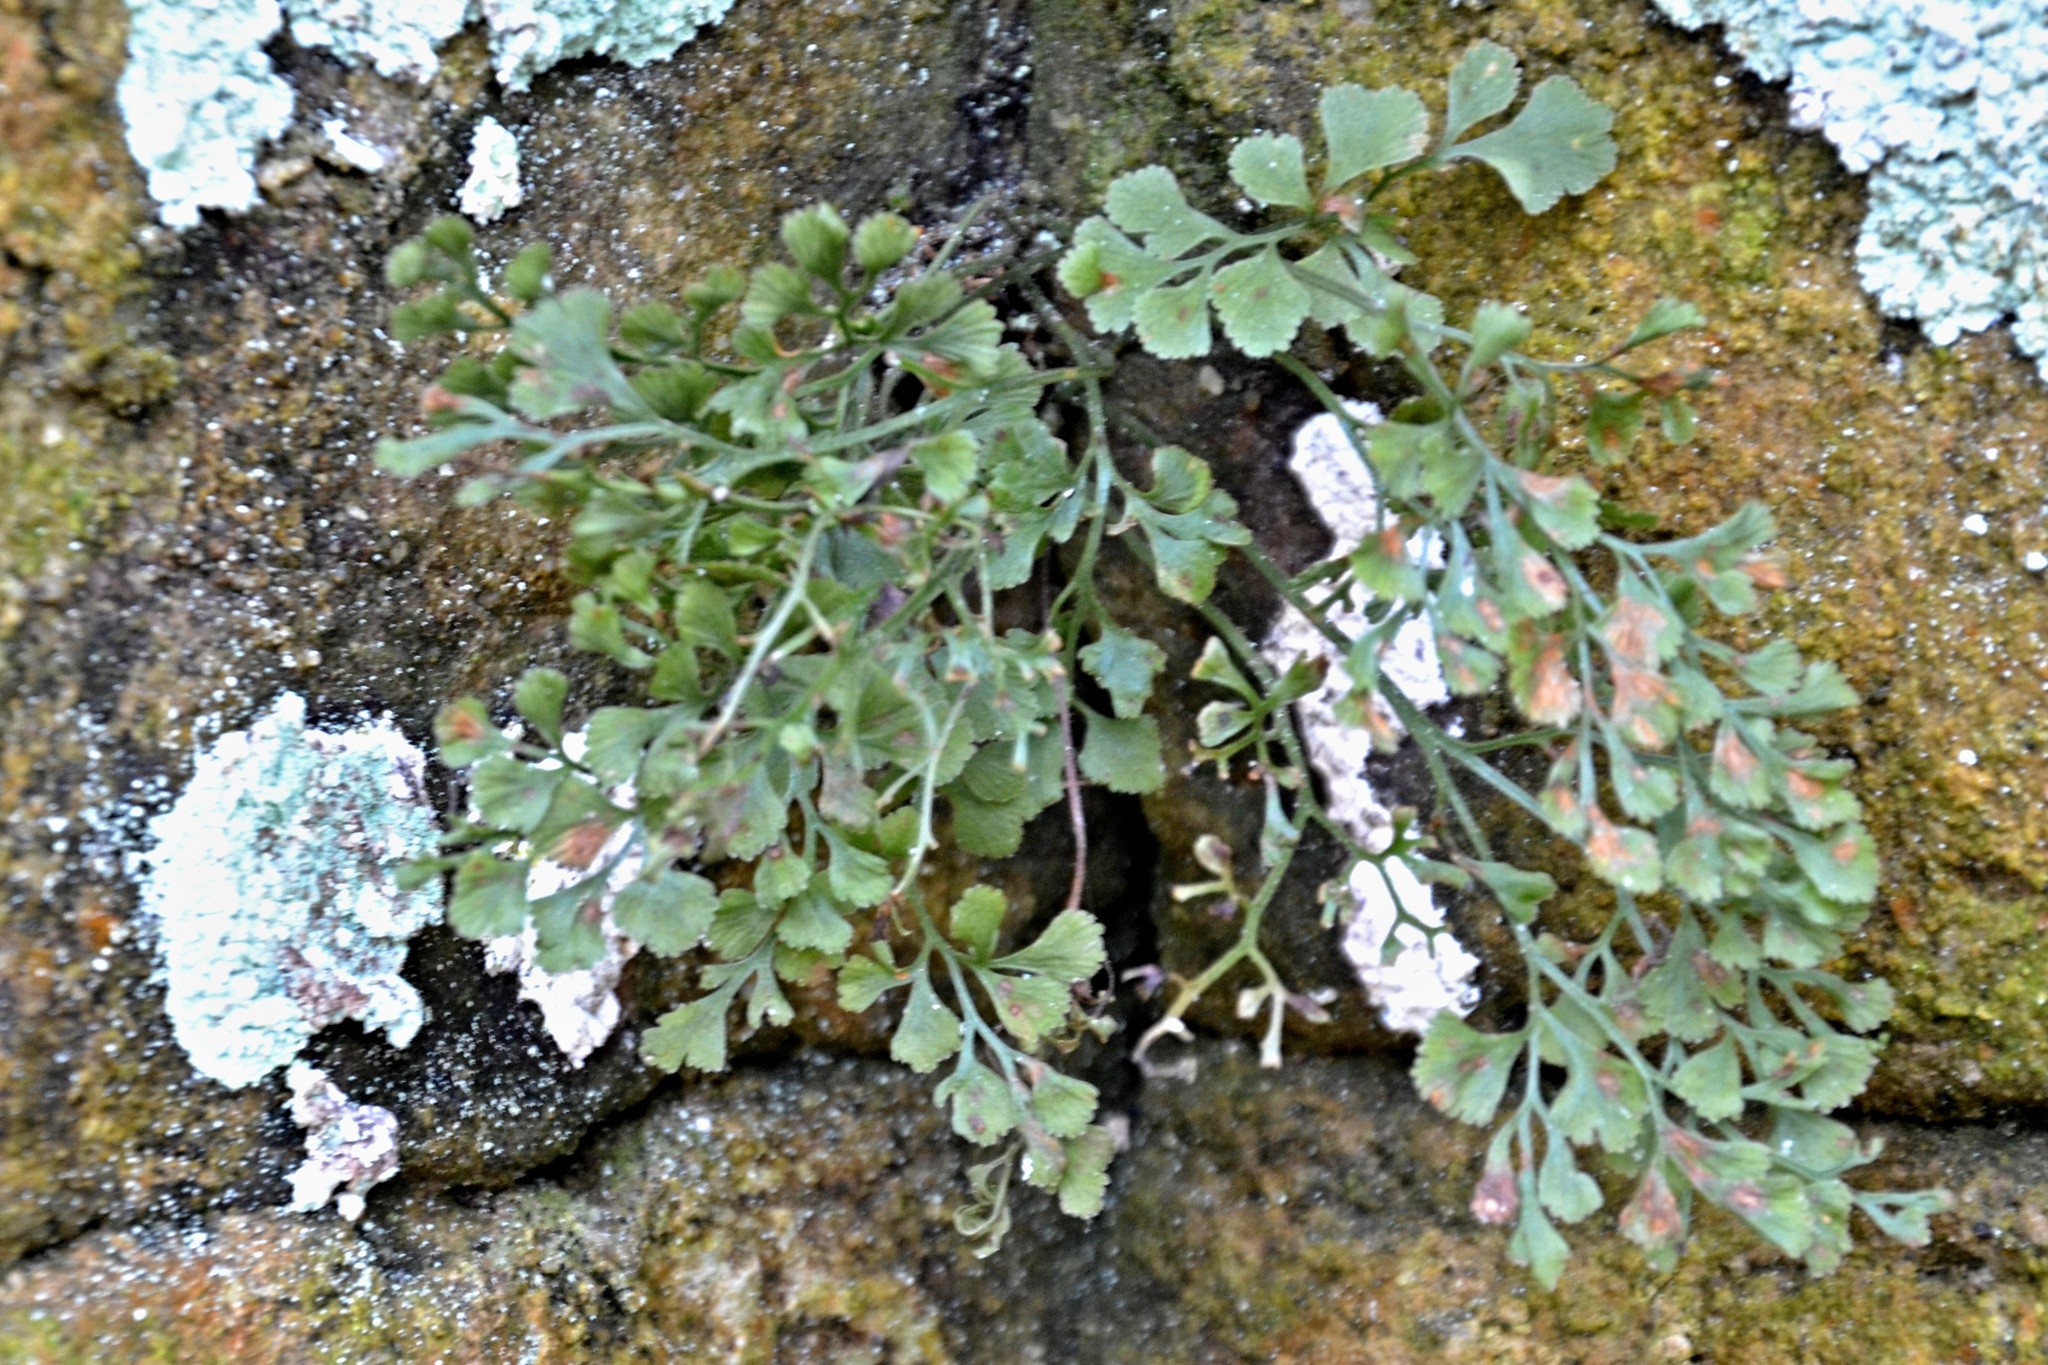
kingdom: Plantae
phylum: Tracheophyta
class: Polypodiopsida
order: Polypodiales
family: Aspleniaceae
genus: Asplenium
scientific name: Asplenium ruta-muraria
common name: Wall-rue
